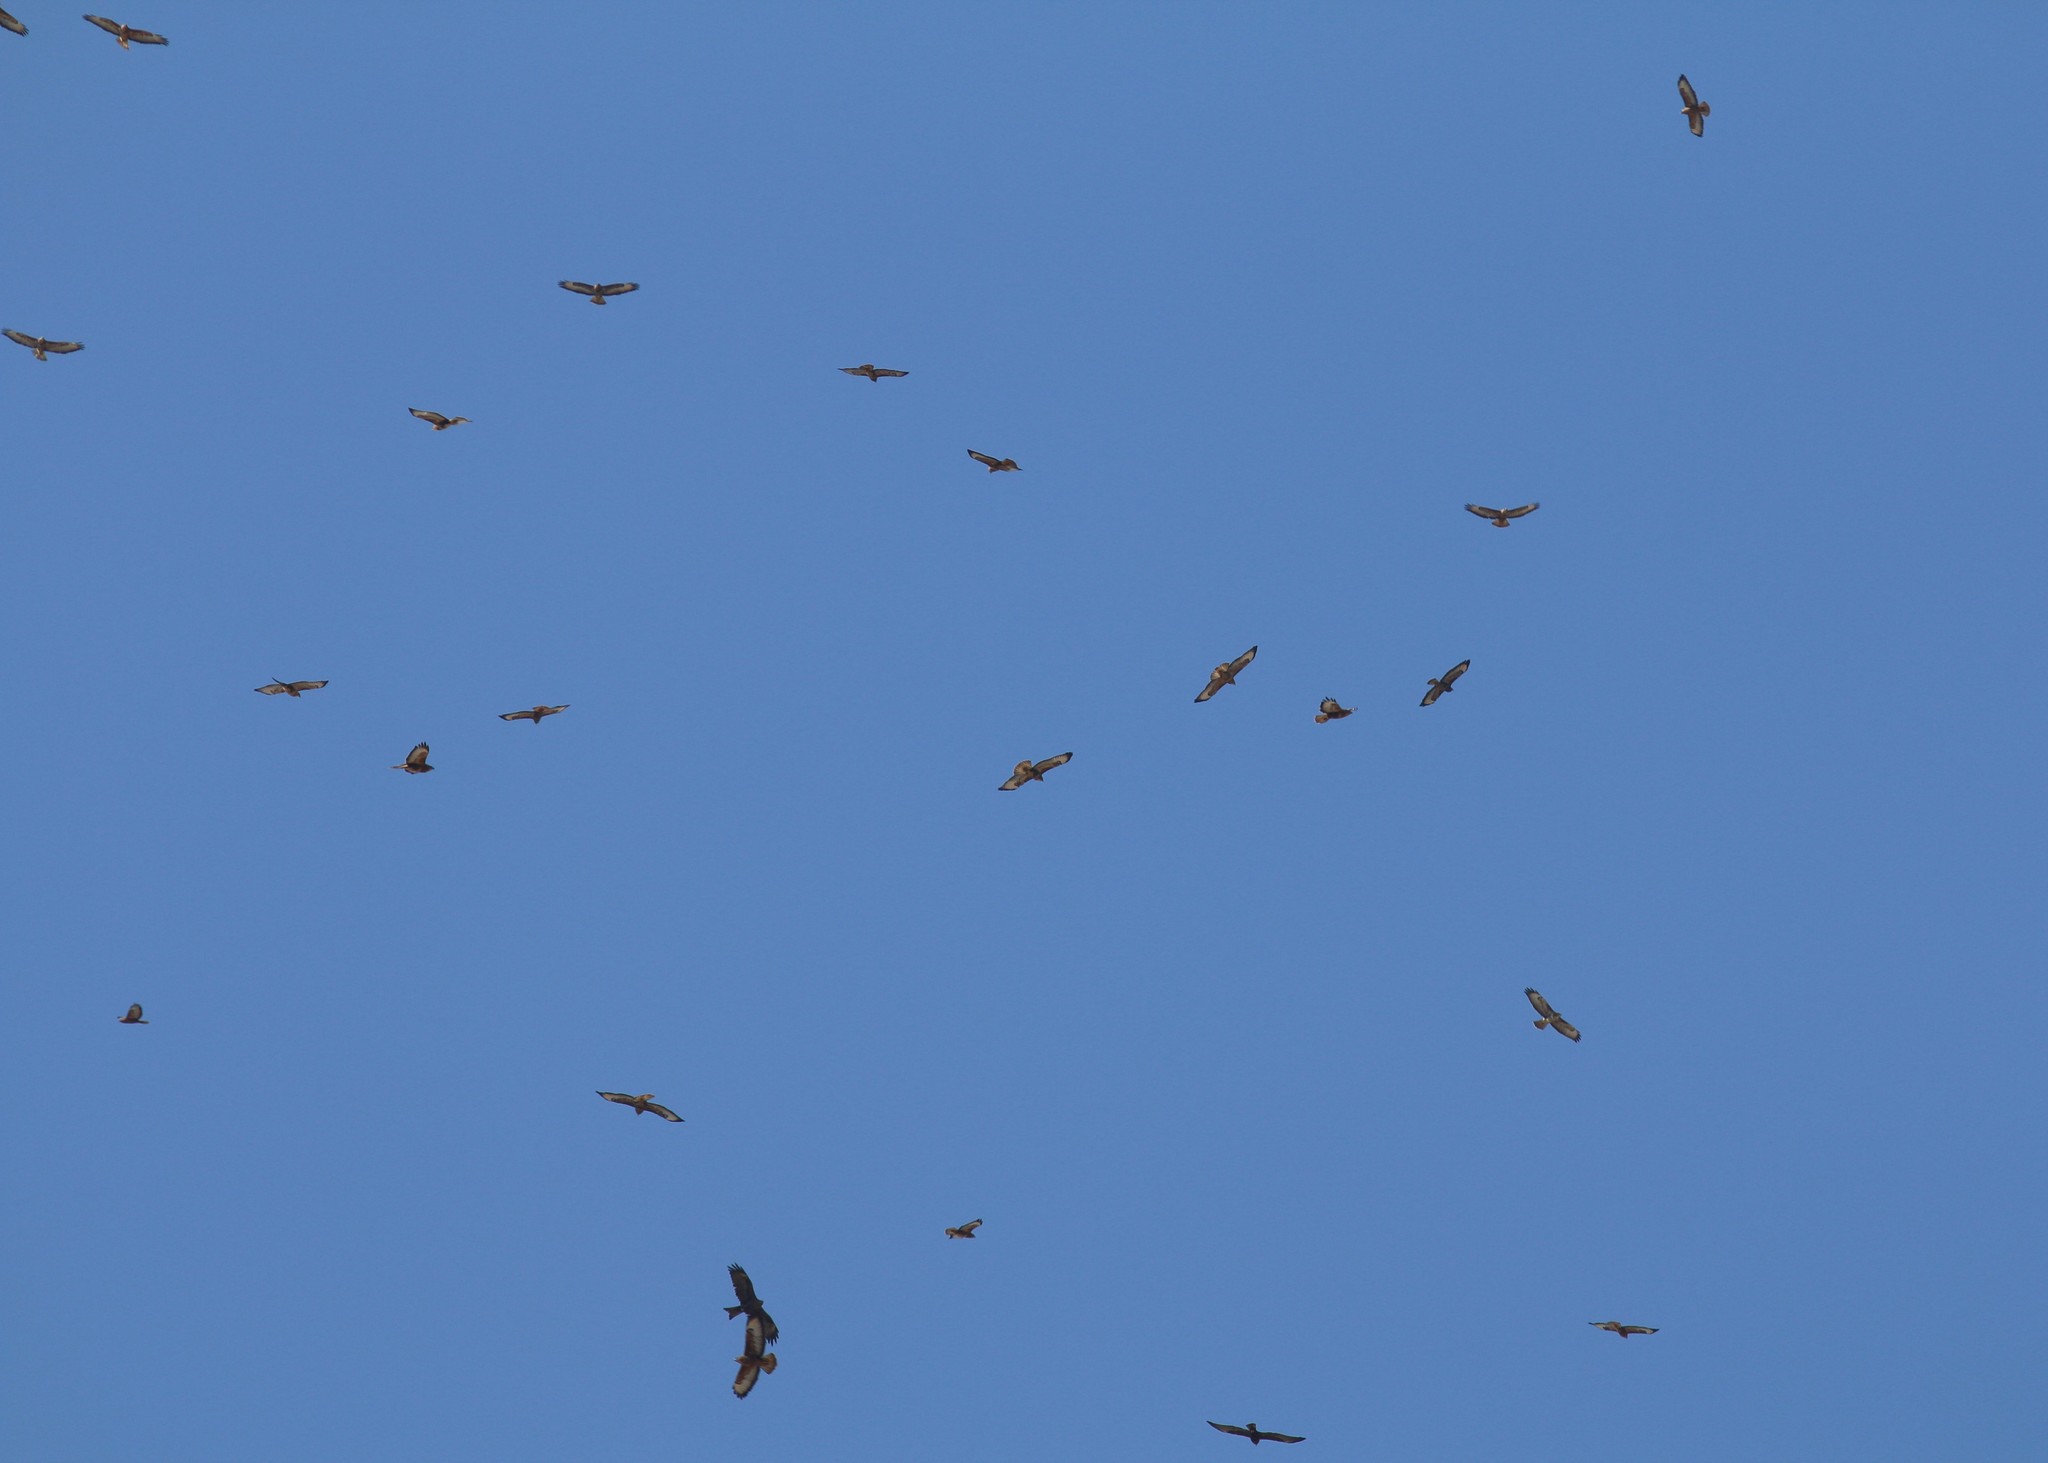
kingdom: Animalia
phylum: Chordata
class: Aves
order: Accipitriformes
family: Accipitridae
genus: Buteo
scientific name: Buteo buteo
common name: Common buzzard
